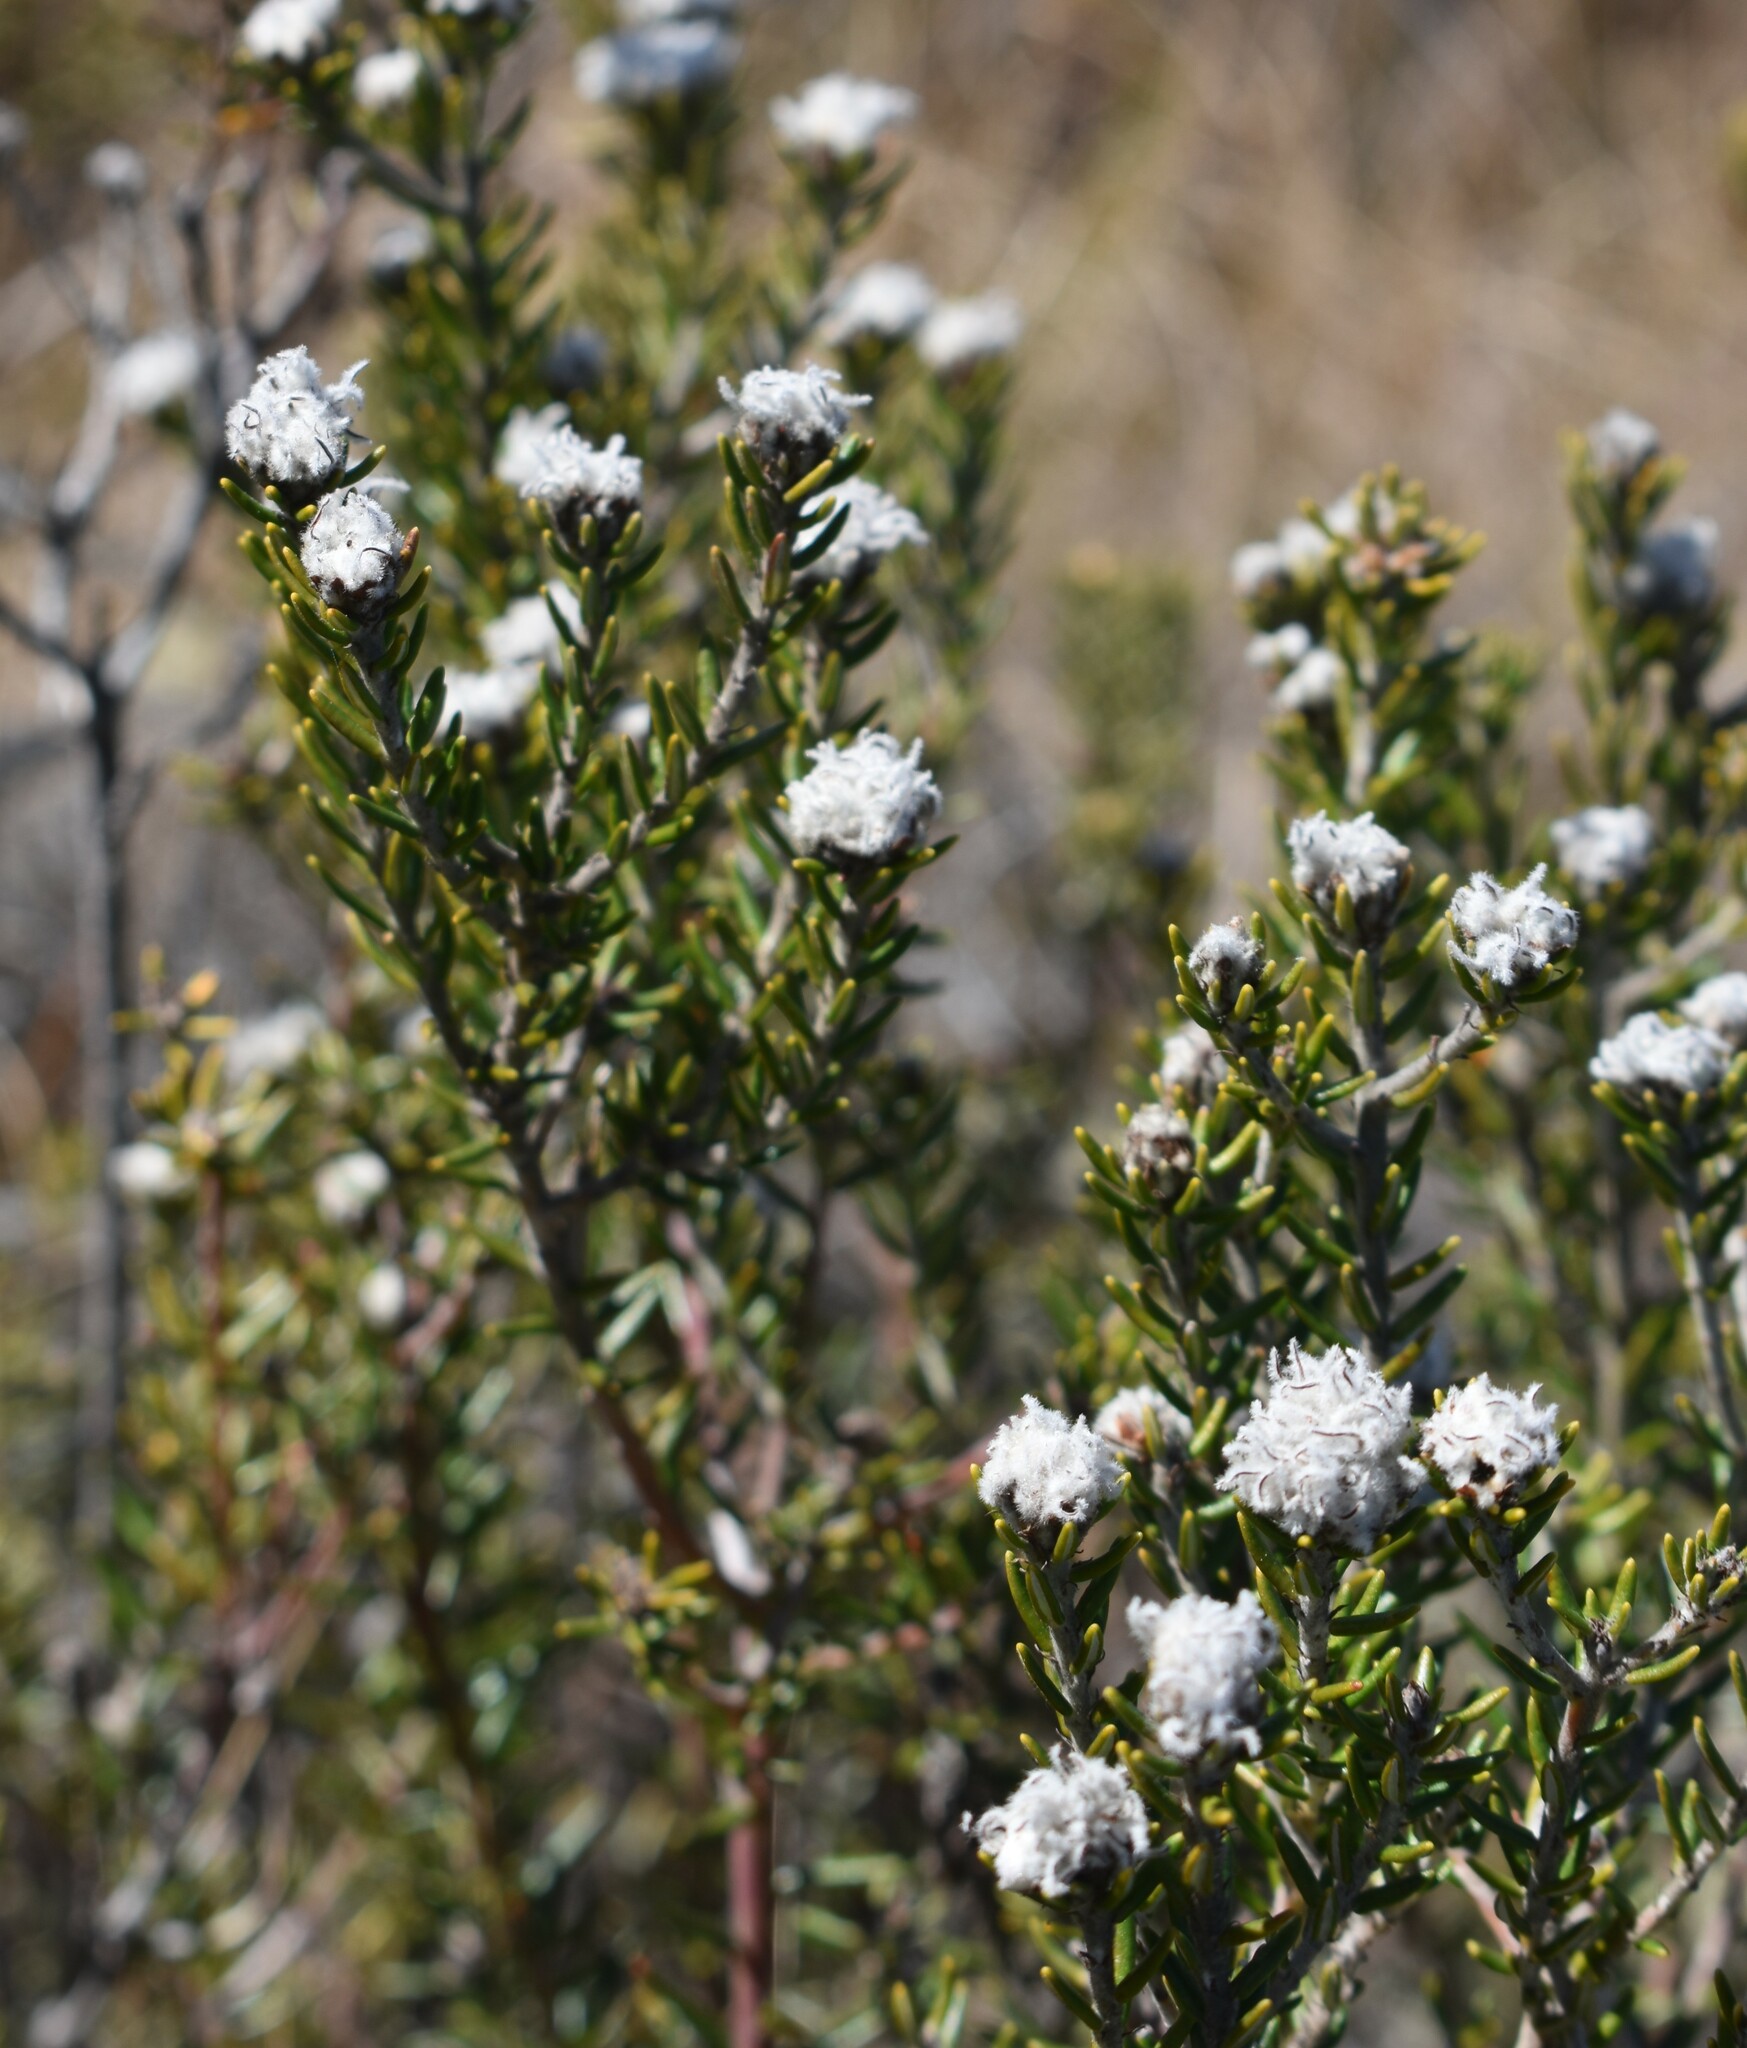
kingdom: Plantae
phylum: Tracheophyta
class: Magnoliopsida
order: Rosales
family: Rhamnaceae
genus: Trichocephalus
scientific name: Trichocephalus stipularis
